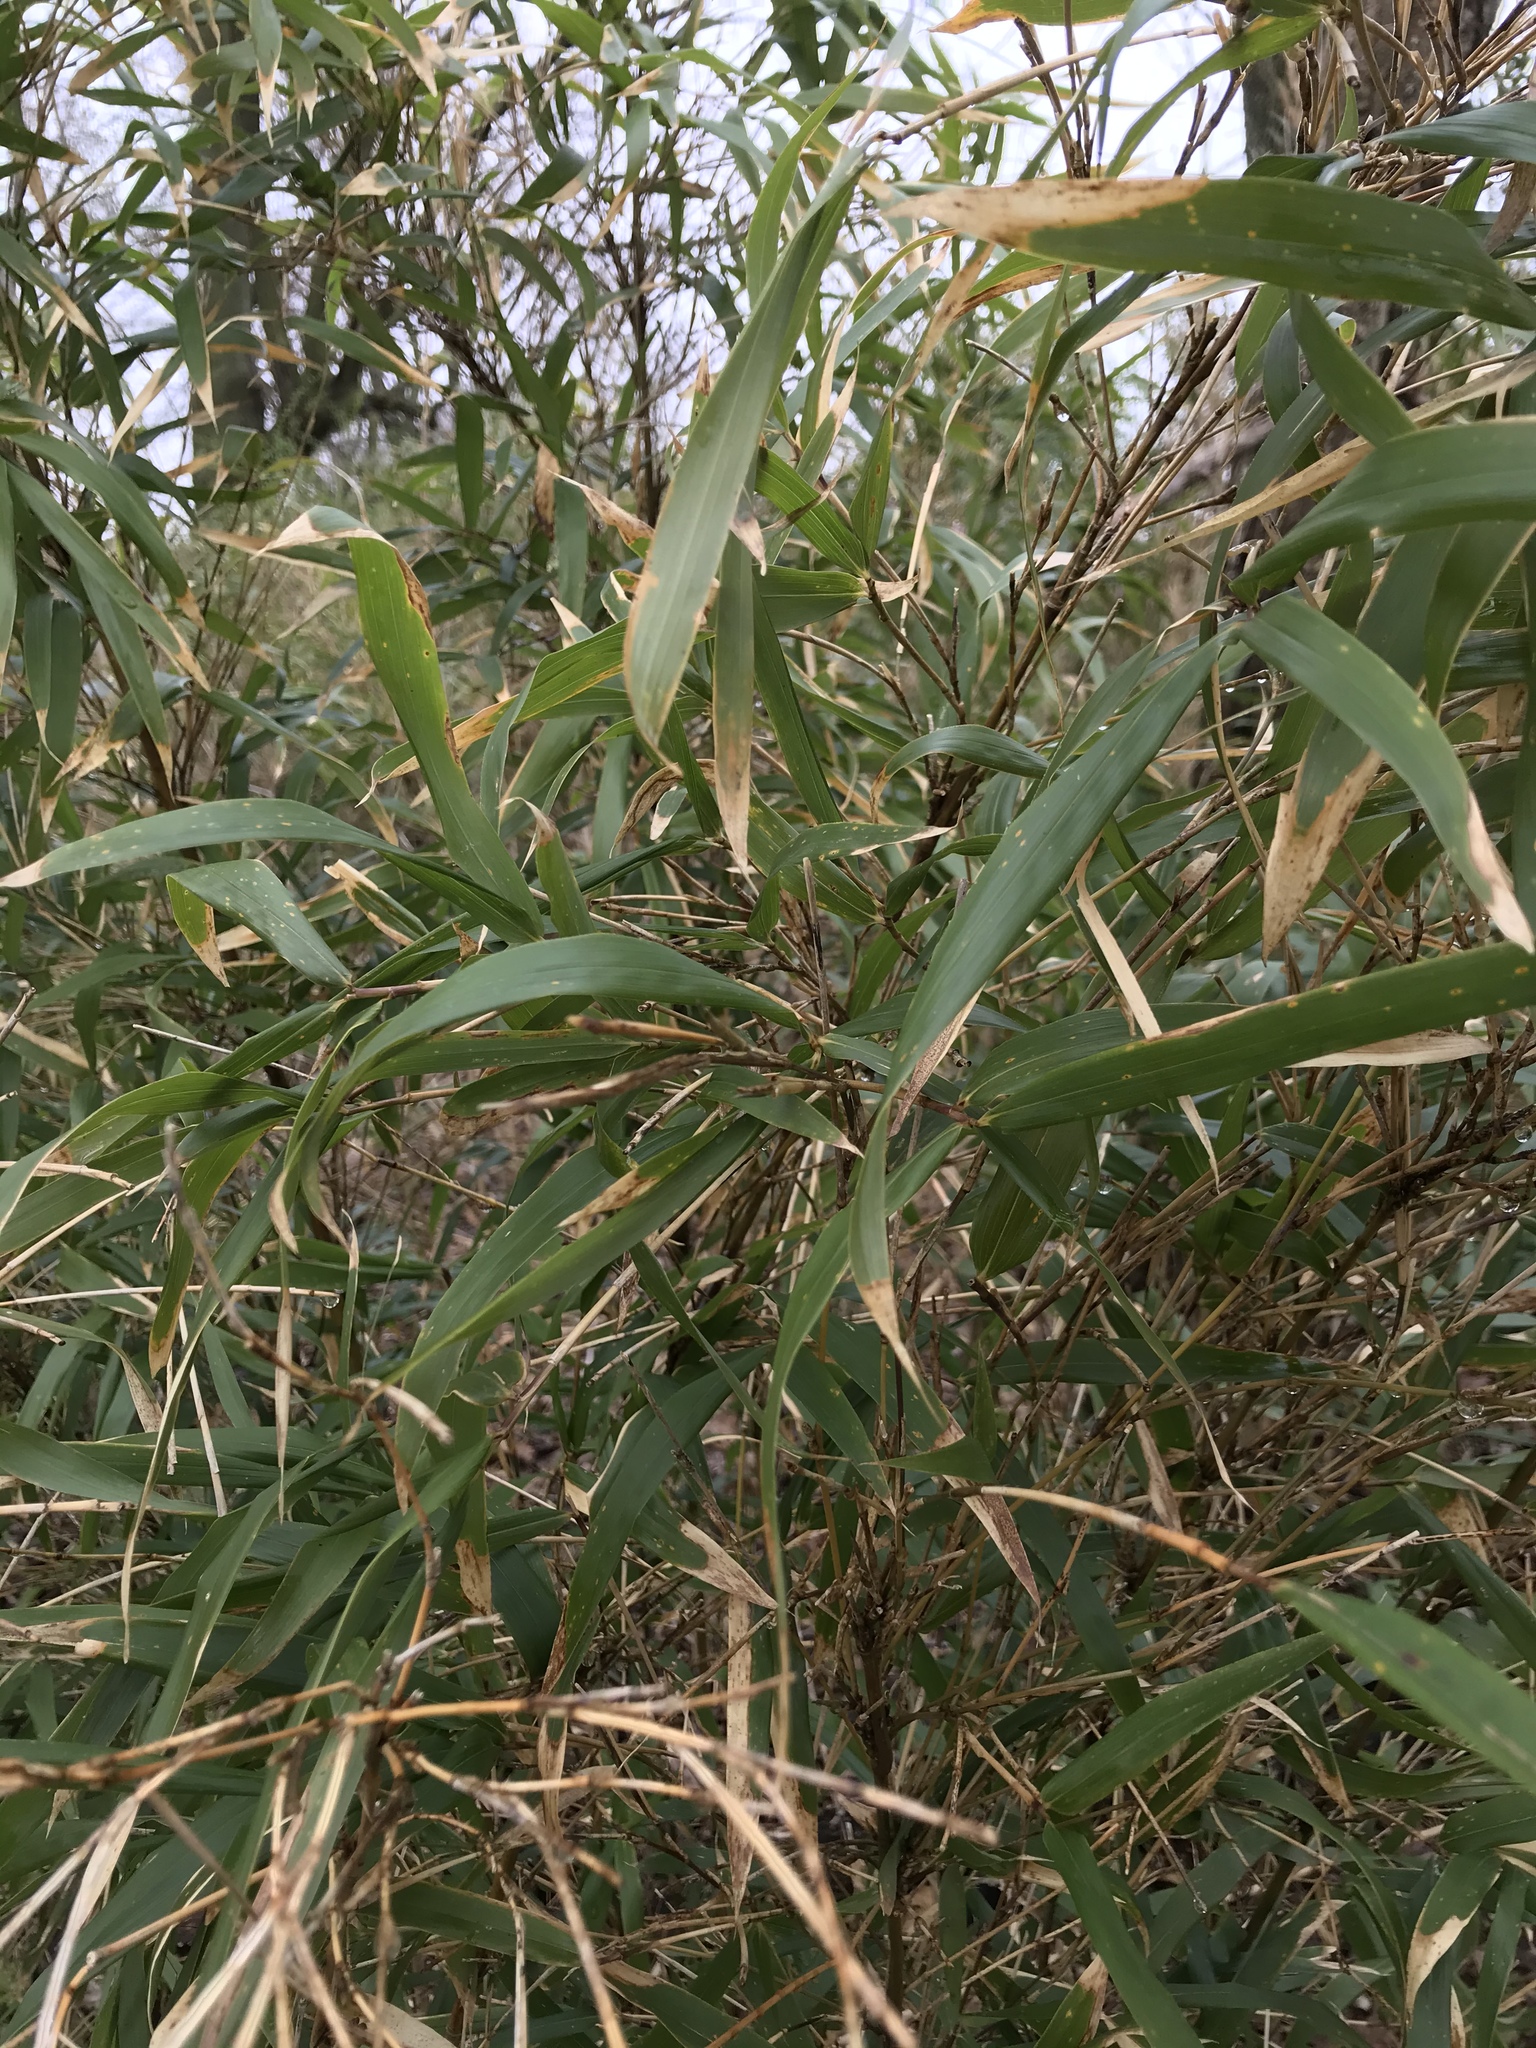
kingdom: Plantae
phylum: Tracheophyta
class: Liliopsida
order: Poales
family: Poaceae
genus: Arundinaria
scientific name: Arundinaria gigantea
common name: Giant cane
